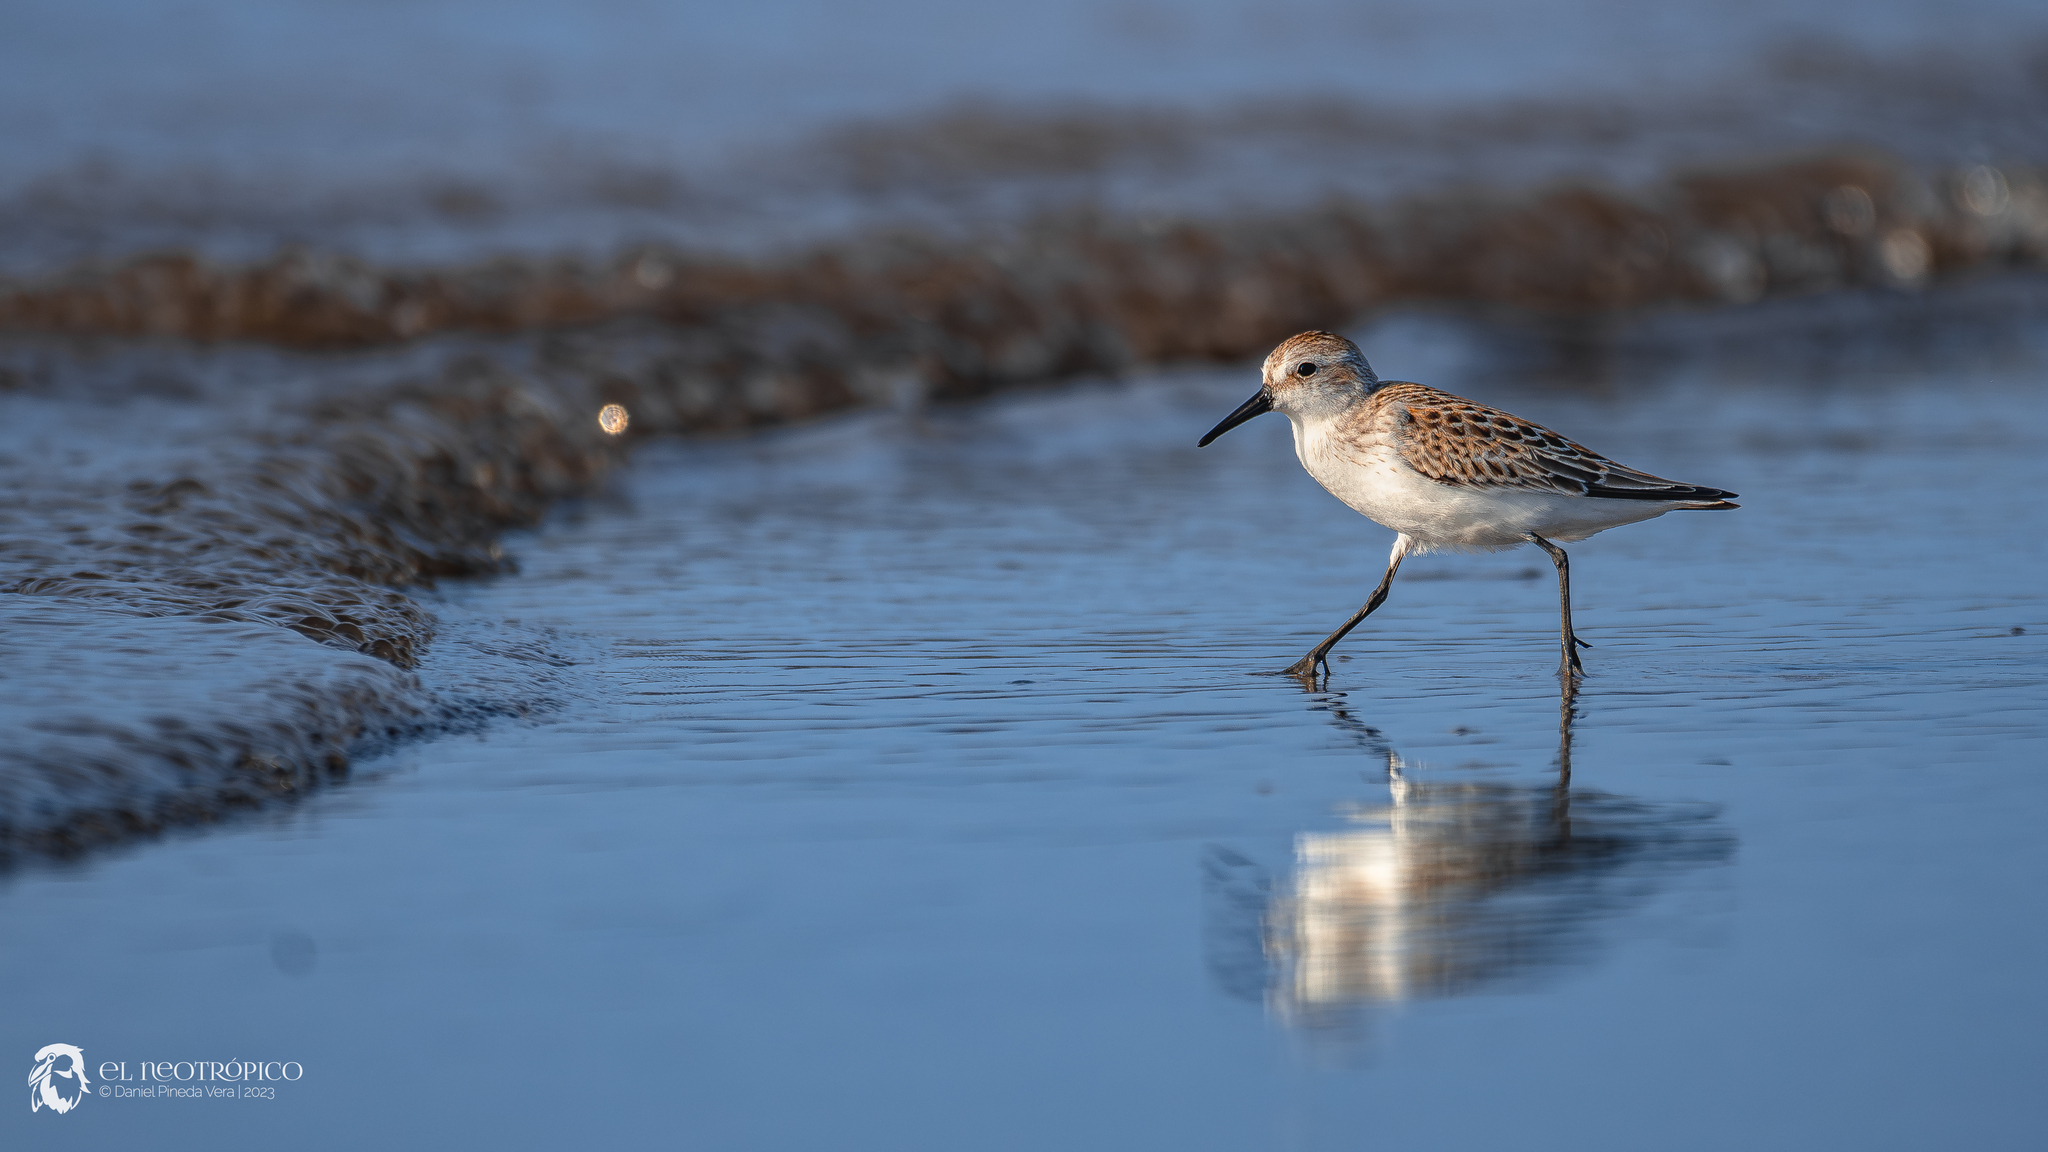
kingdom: Animalia
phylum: Chordata
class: Aves
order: Charadriiformes
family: Scolopacidae
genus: Calidris
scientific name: Calidris mauri
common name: Western sandpiper
